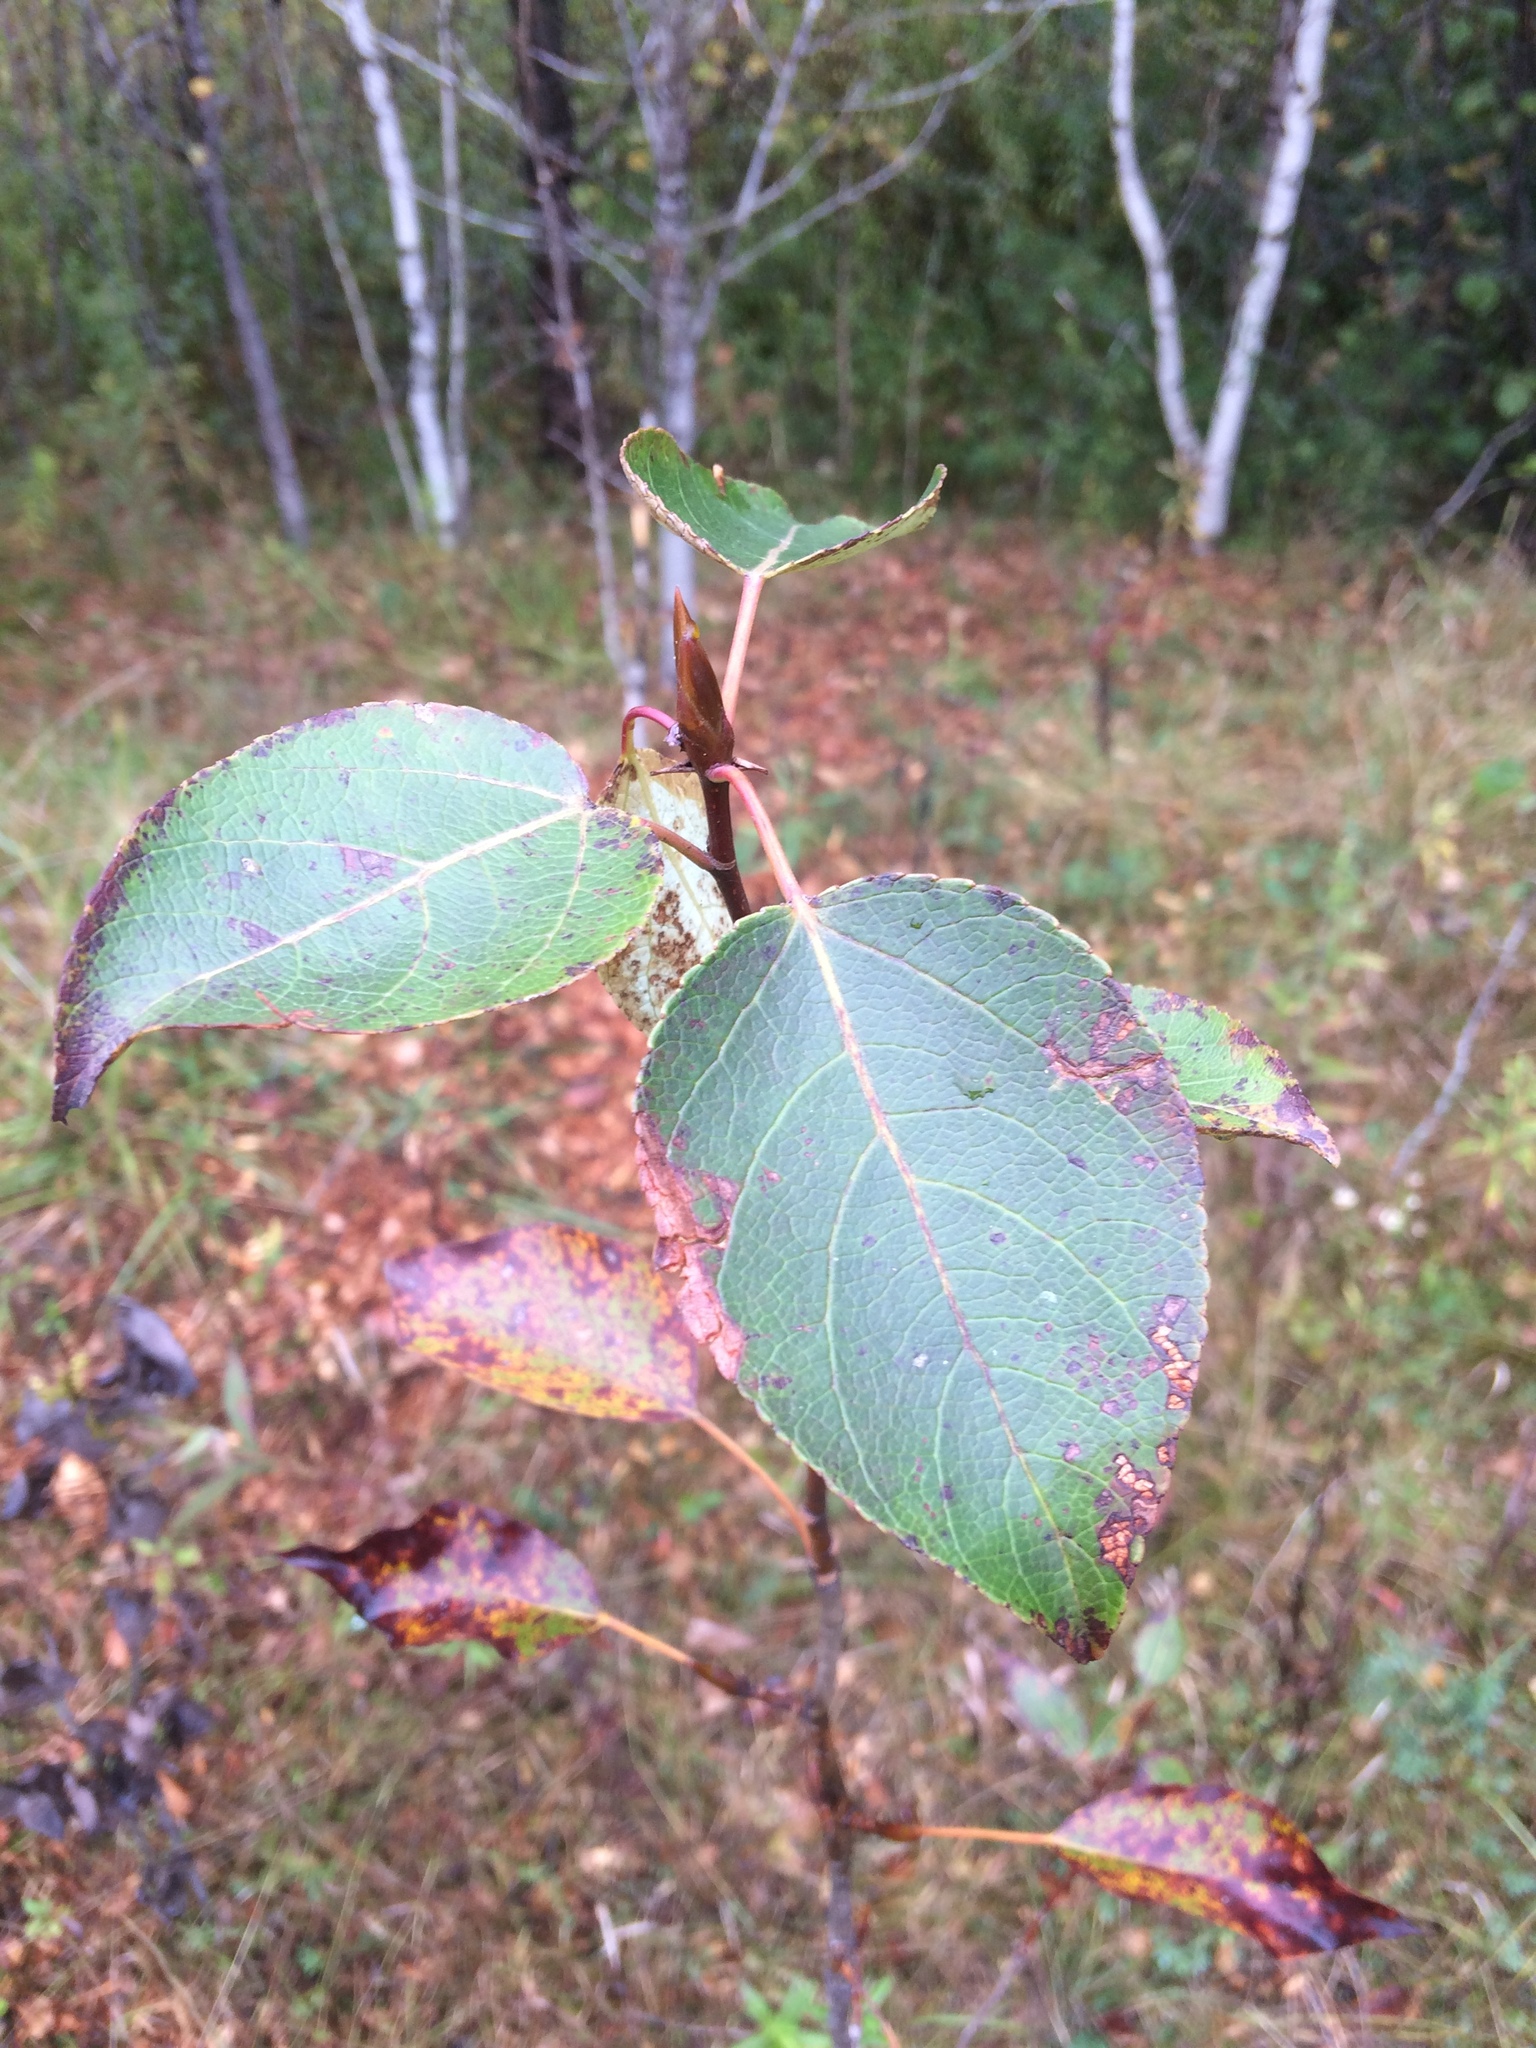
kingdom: Plantae
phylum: Tracheophyta
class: Magnoliopsida
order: Malpighiales
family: Salicaceae
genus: Populus
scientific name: Populus balsamifera
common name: Balsam poplar
